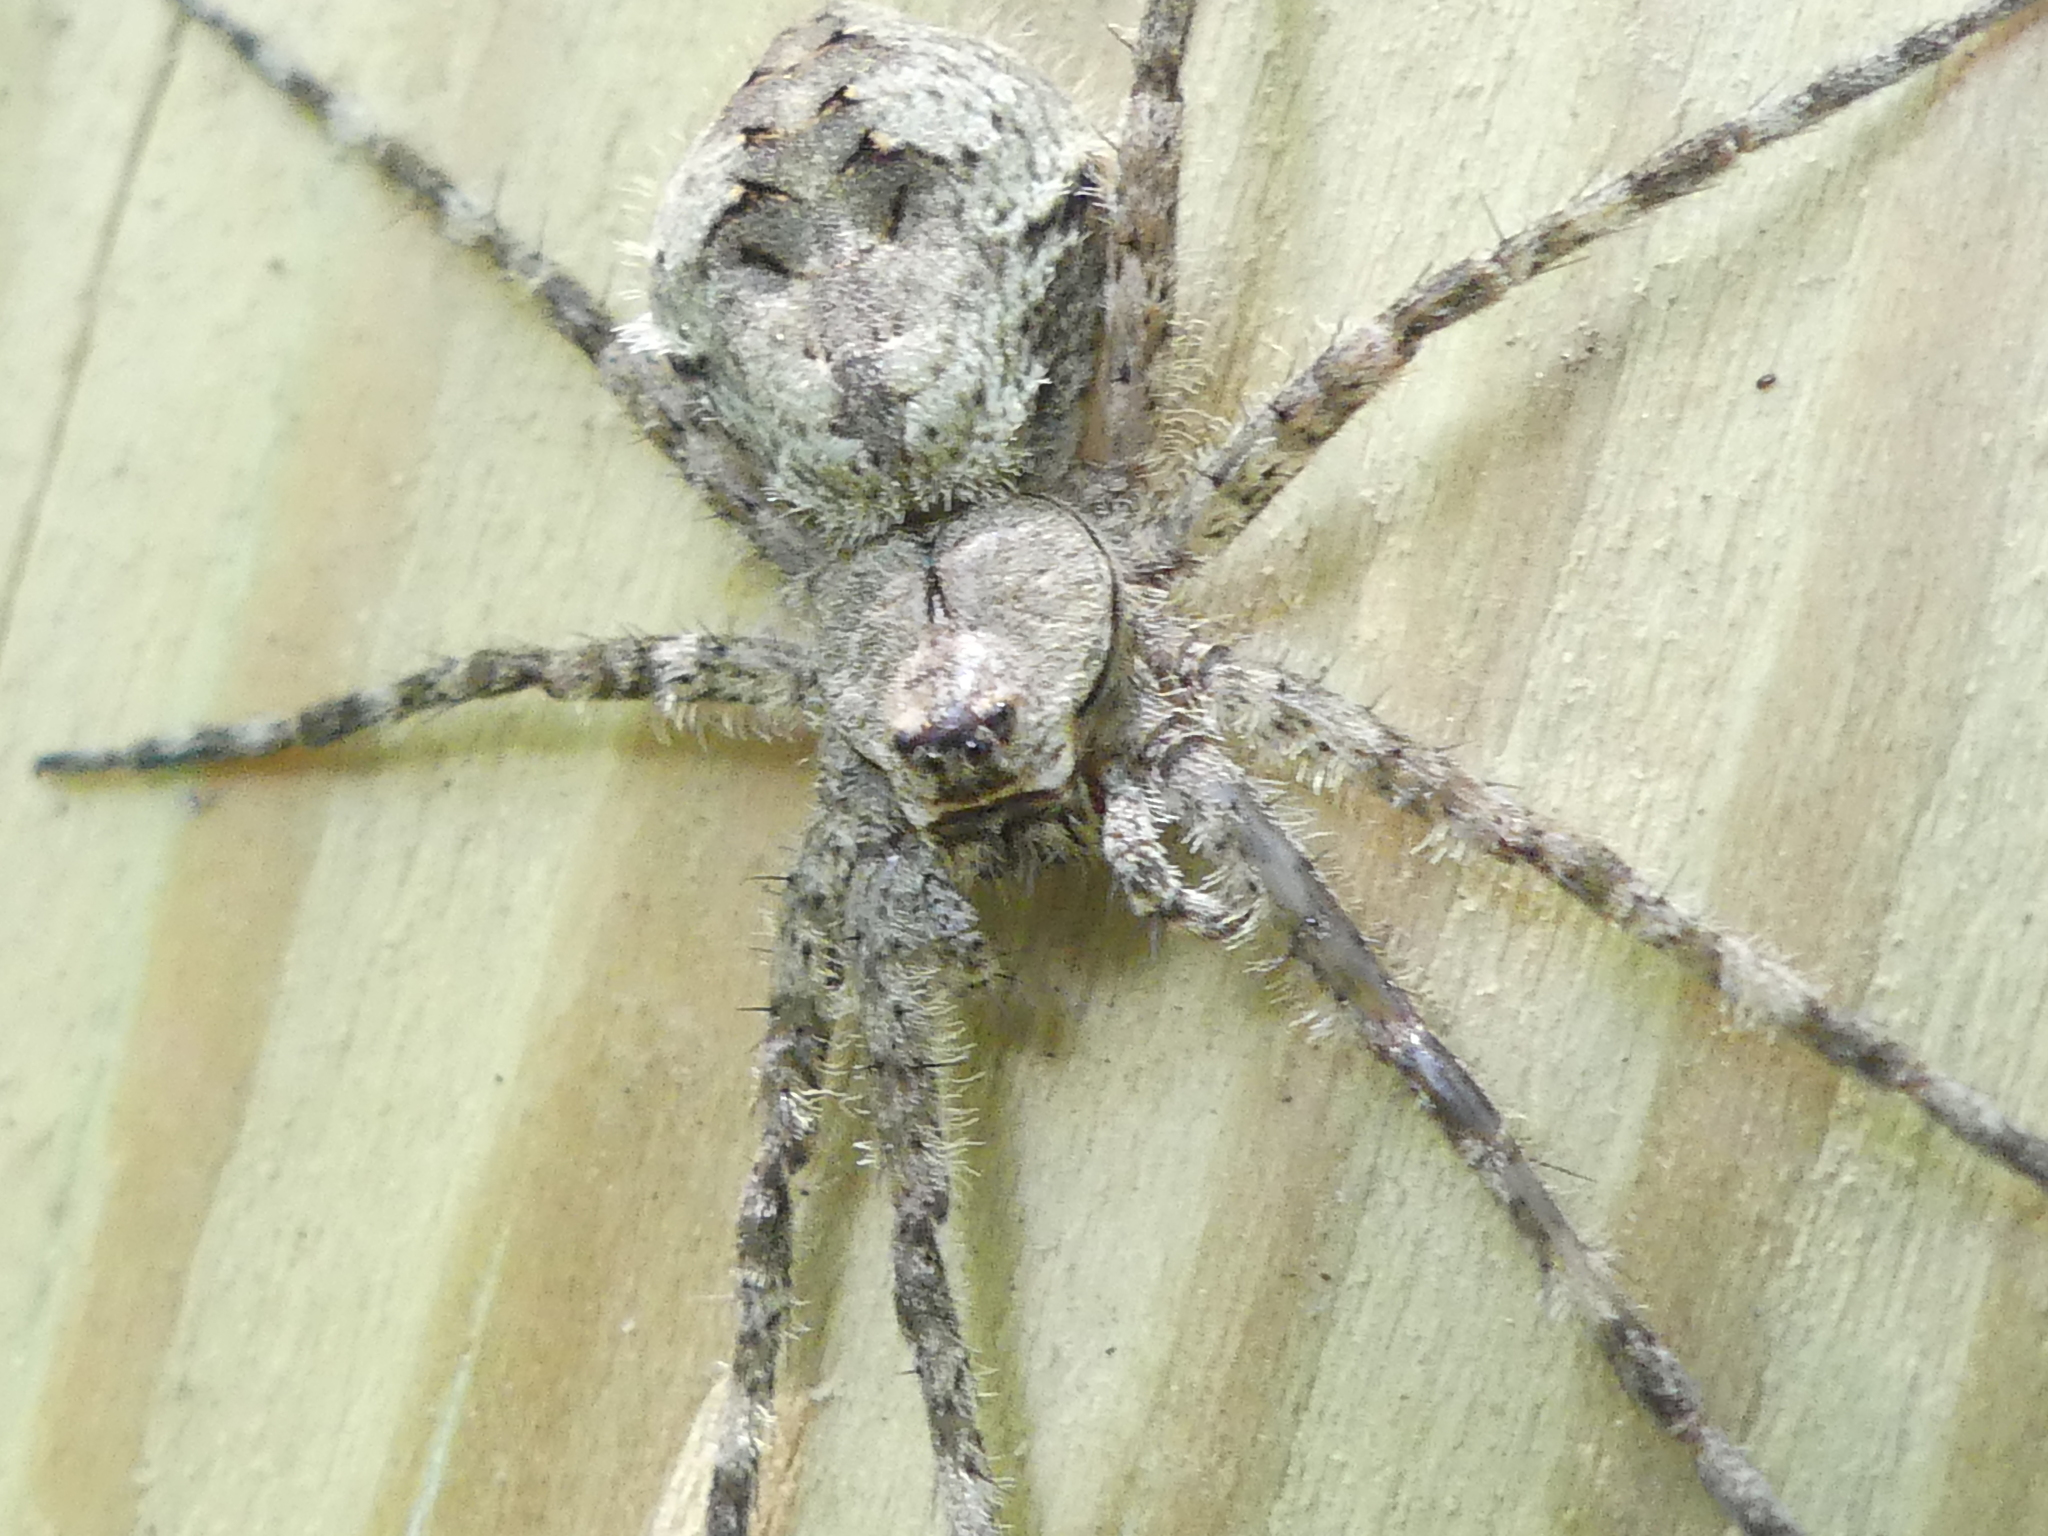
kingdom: Animalia
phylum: Arthropoda
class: Arachnida
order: Araneae
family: Pisauridae
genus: Dolomedes
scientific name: Dolomedes albineus
